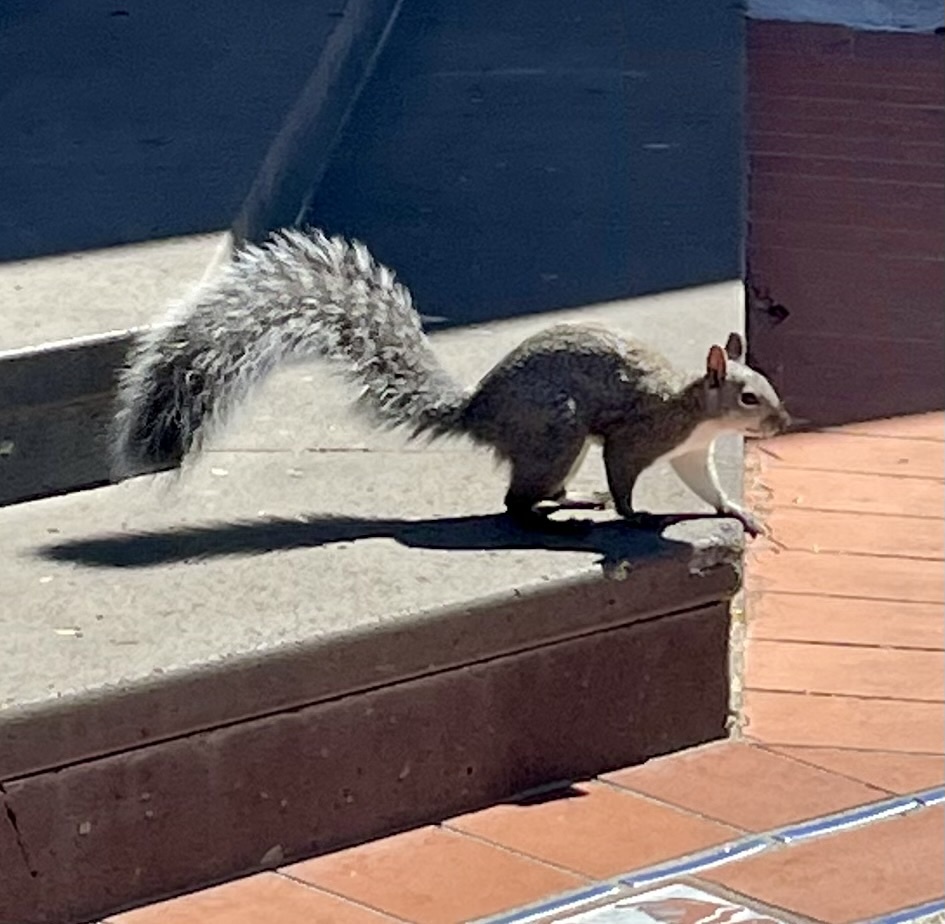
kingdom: Animalia
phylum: Chordata
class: Mammalia
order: Rodentia
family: Sciuridae
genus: Sciurus
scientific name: Sciurus griseus
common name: Western gray squirrel
